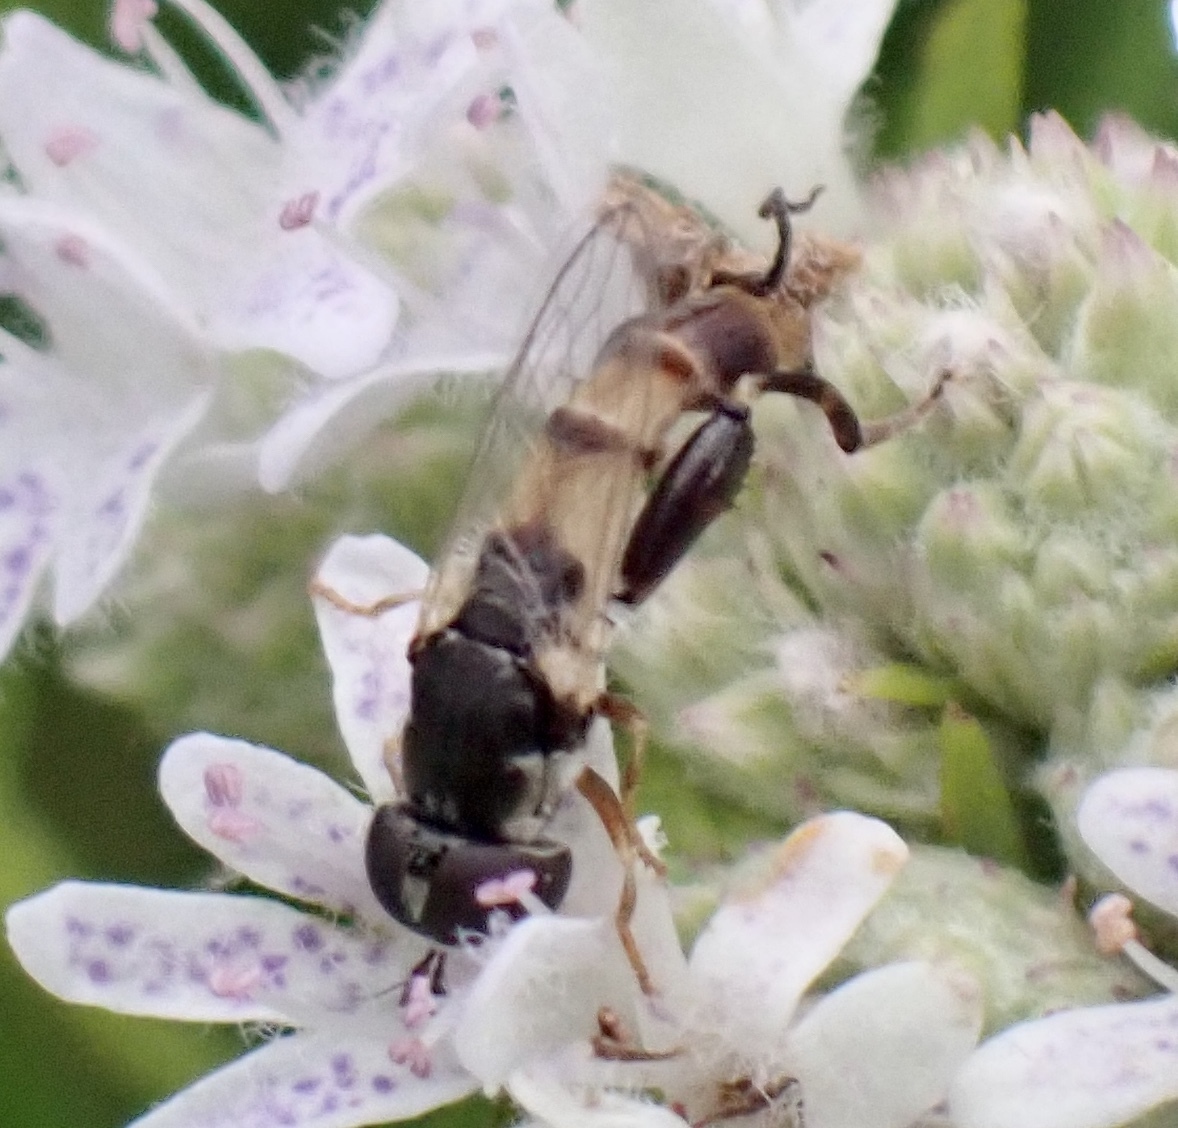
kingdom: Animalia
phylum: Arthropoda
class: Insecta
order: Diptera
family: Syrphidae
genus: Syritta
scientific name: Syritta flaviventris
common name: Syrphid fly
